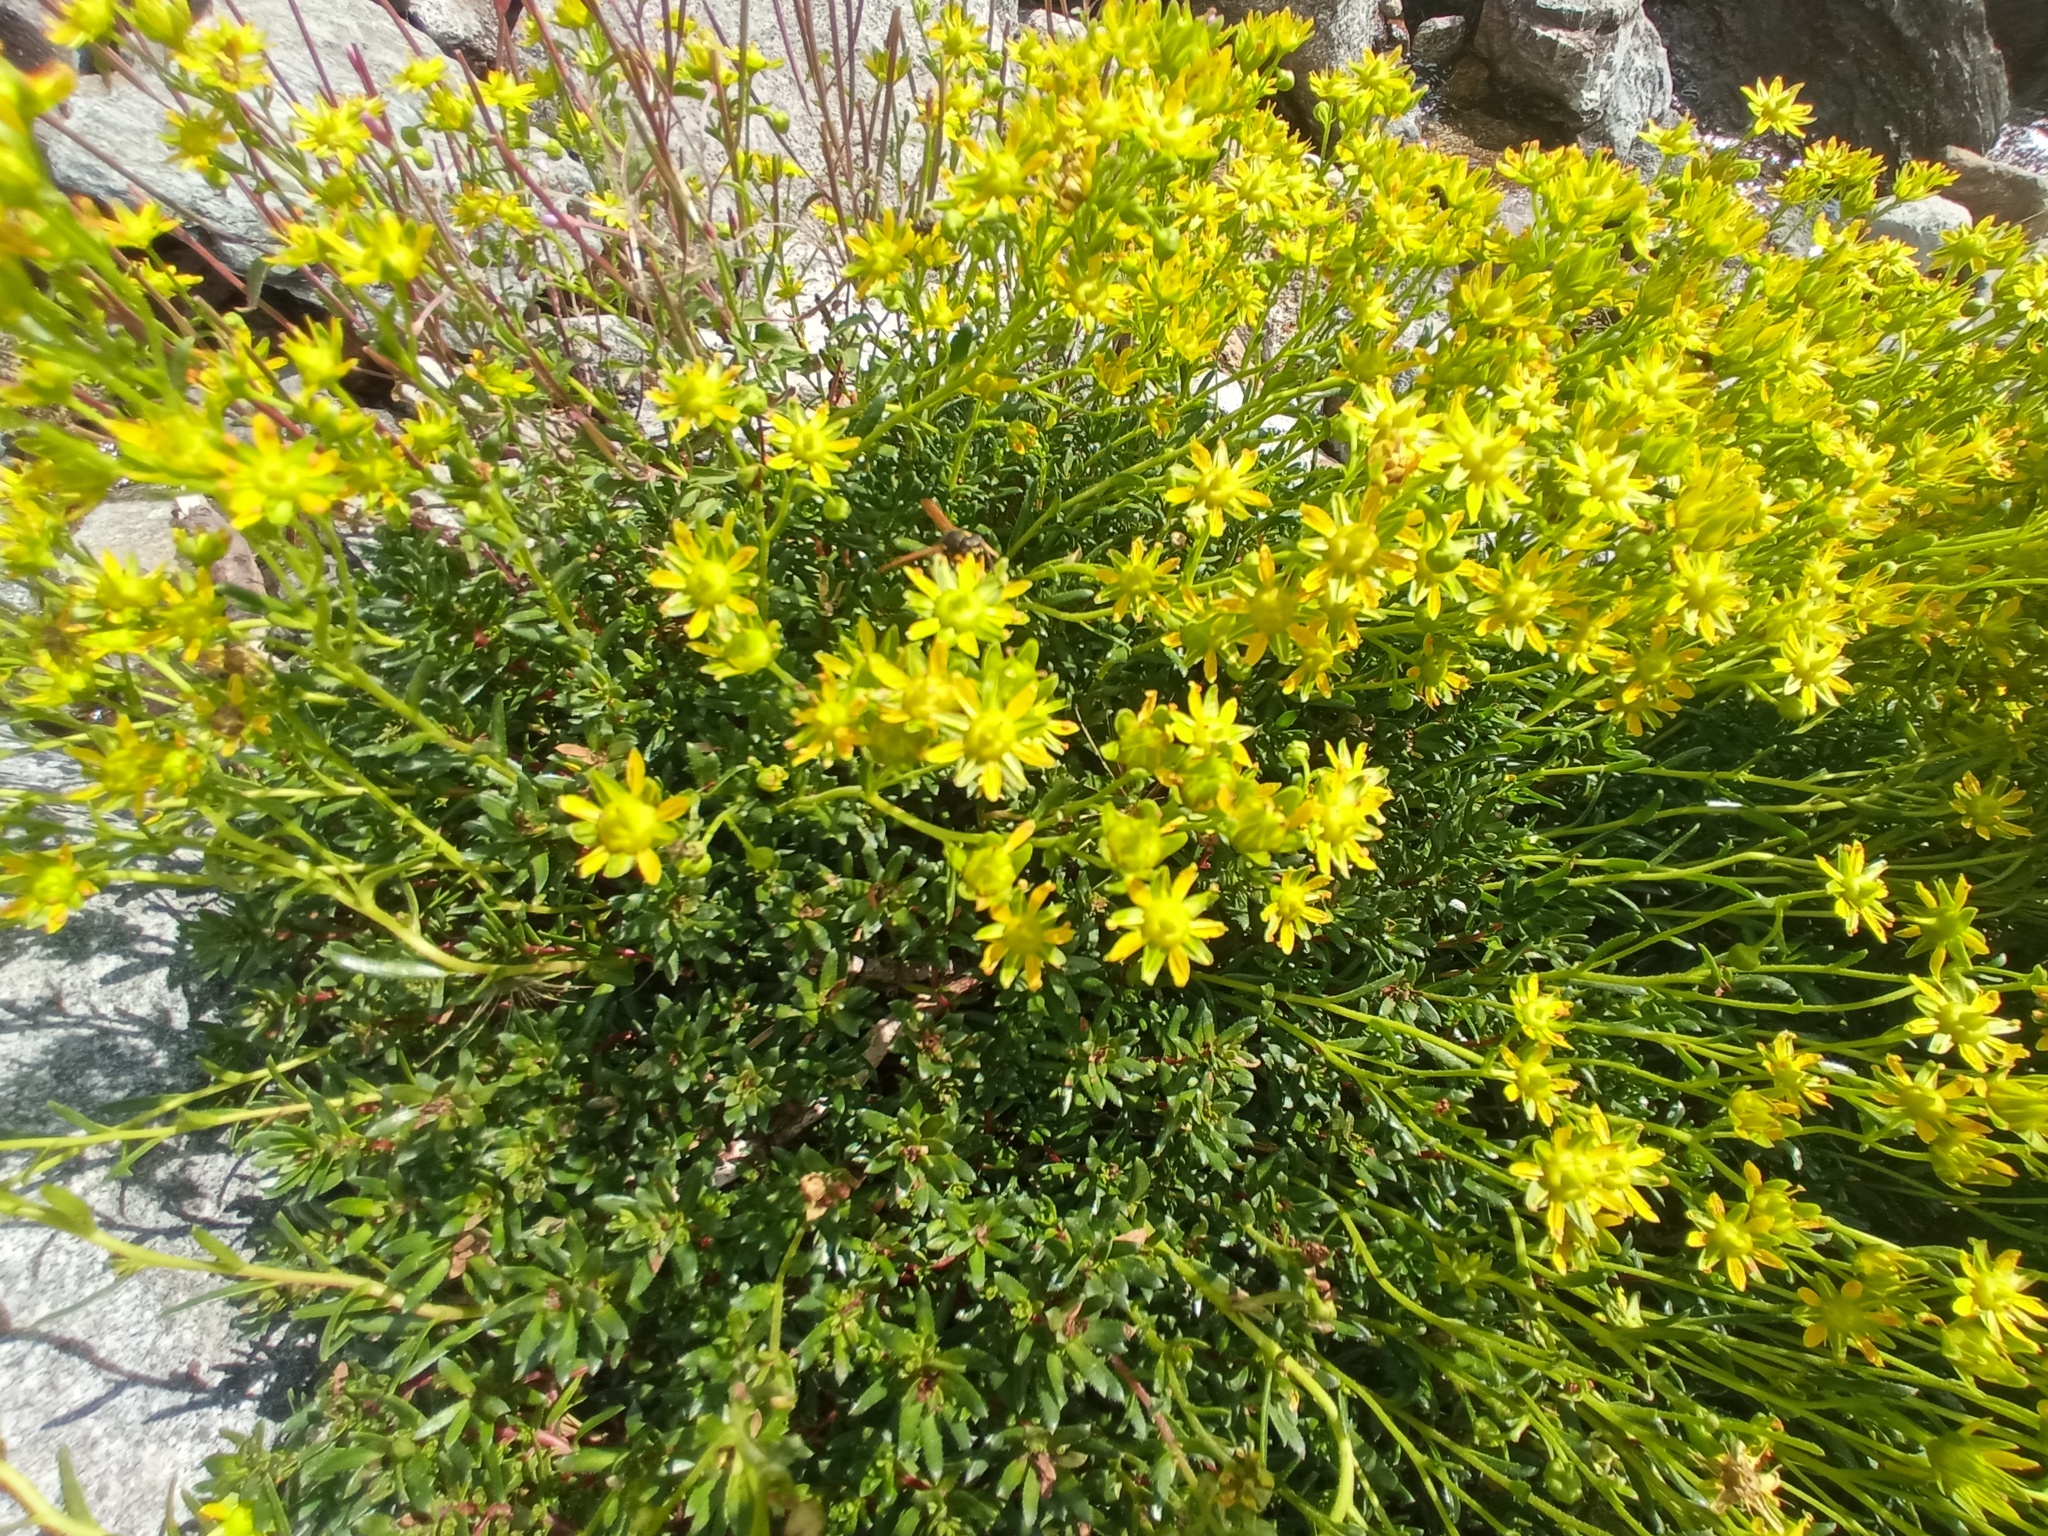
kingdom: Plantae
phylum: Tracheophyta
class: Magnoliopsida
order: Saxifragales
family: Saxifragaceae
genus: Saxifraga
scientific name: Saxifraga aizoides
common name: Yellow mountain saxifrage
